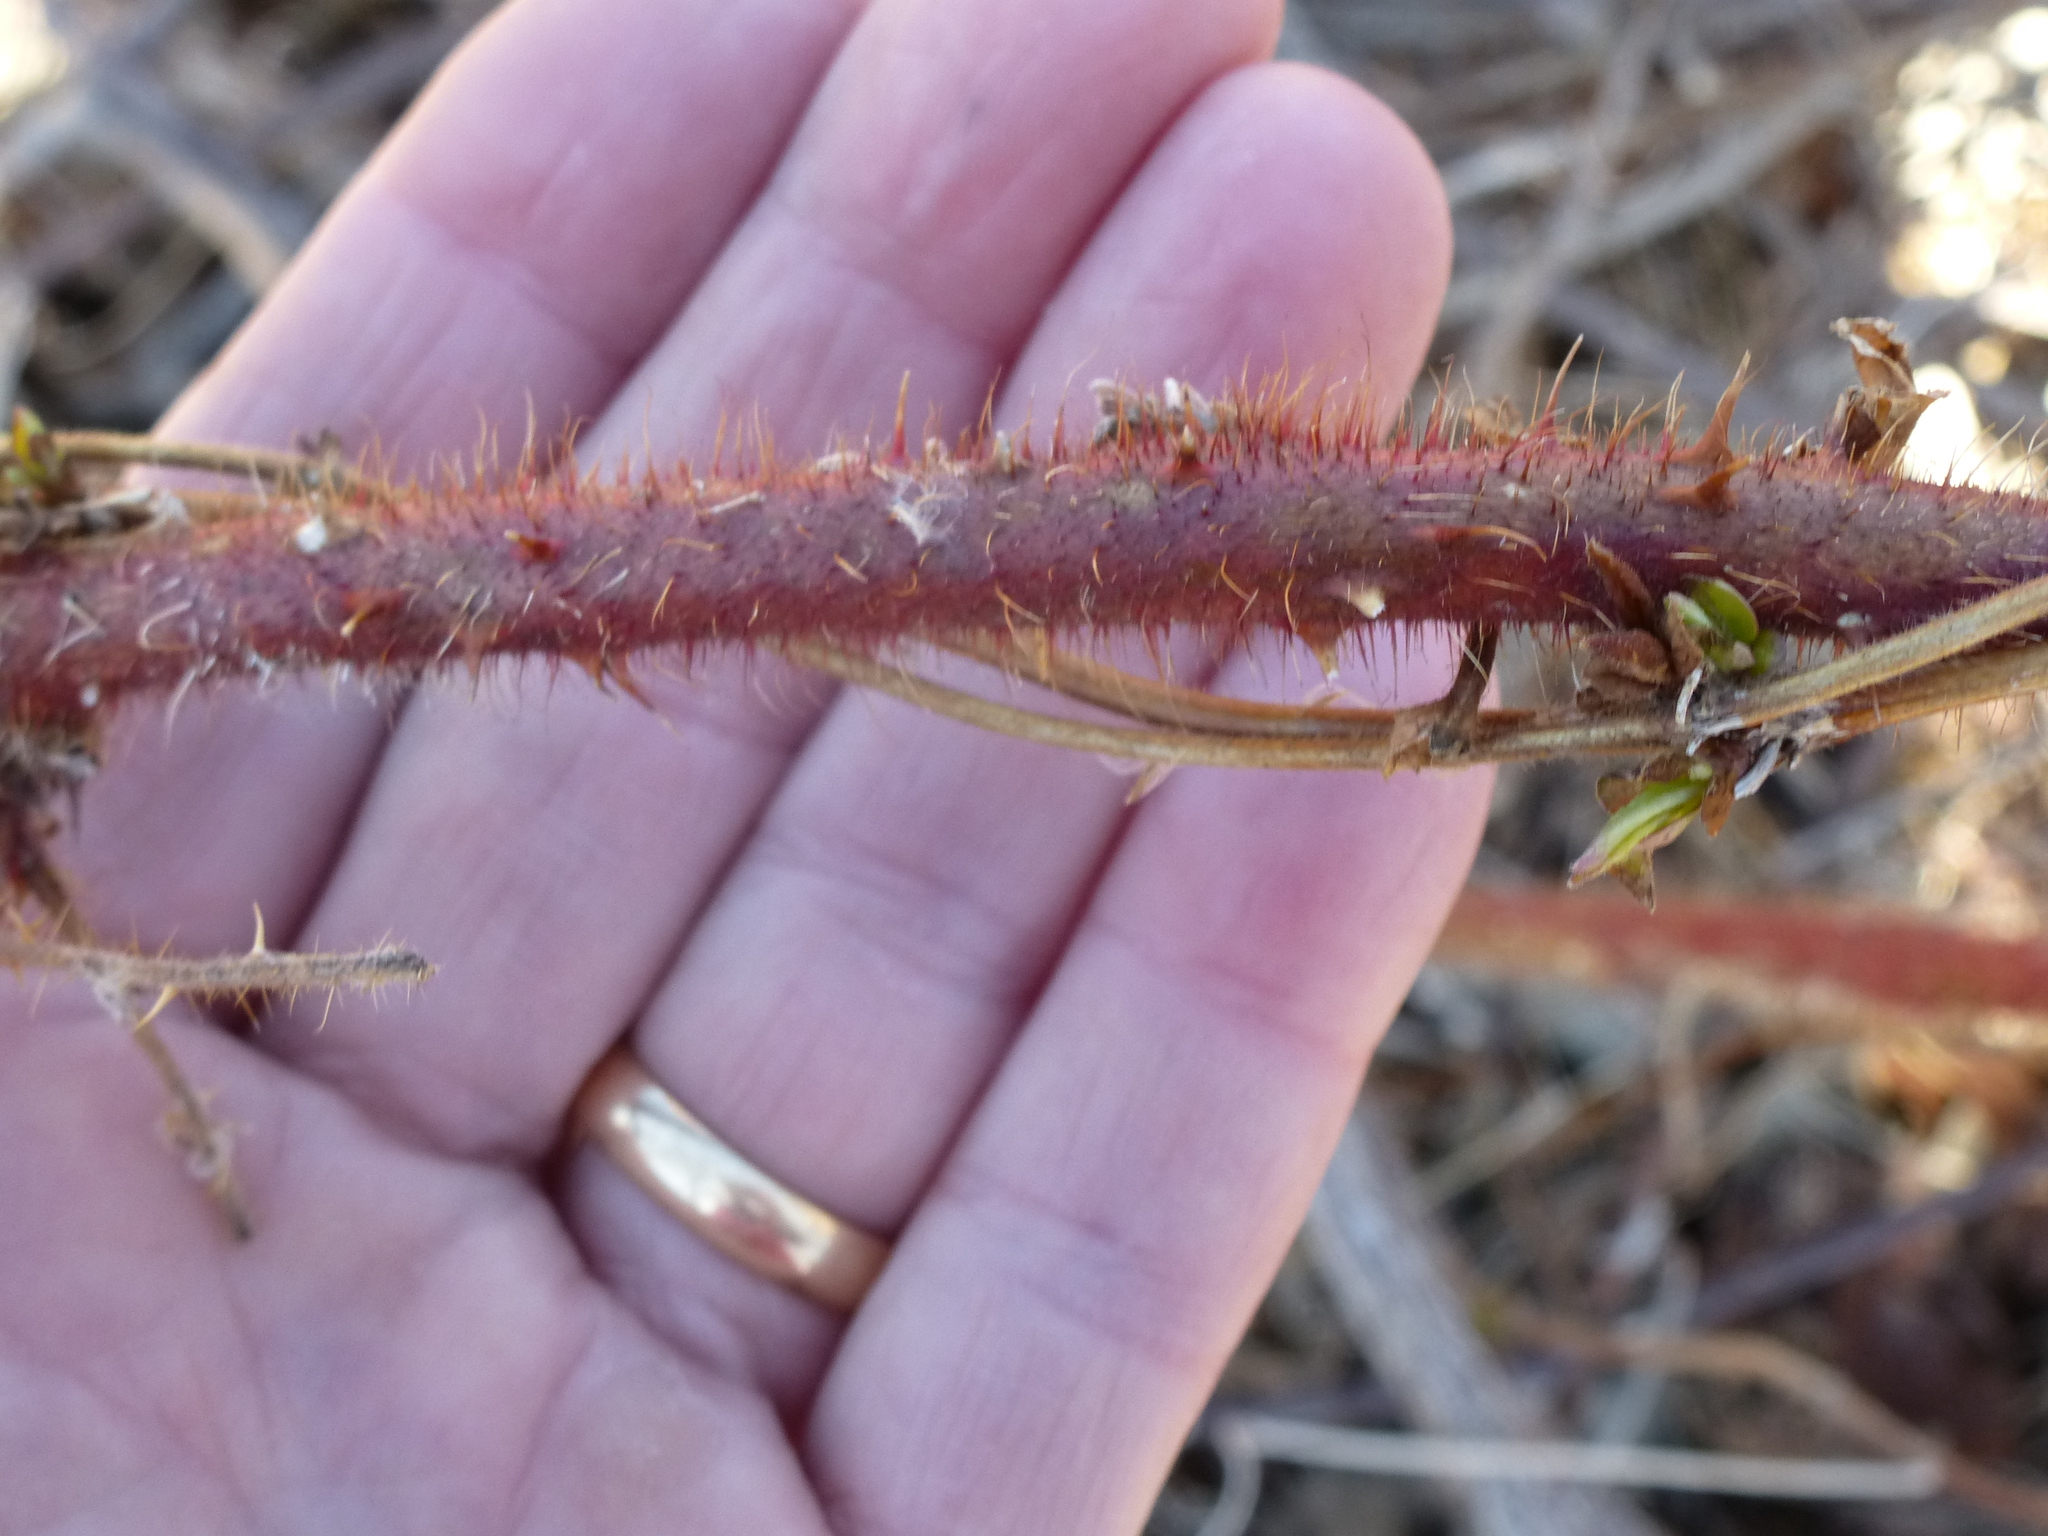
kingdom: Plantae
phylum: Tracheophyta
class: Magnoliopsida
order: Rosales
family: Rosaceae
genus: Rubus
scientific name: Rubus phoenicolasius
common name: Japanese wineberry
